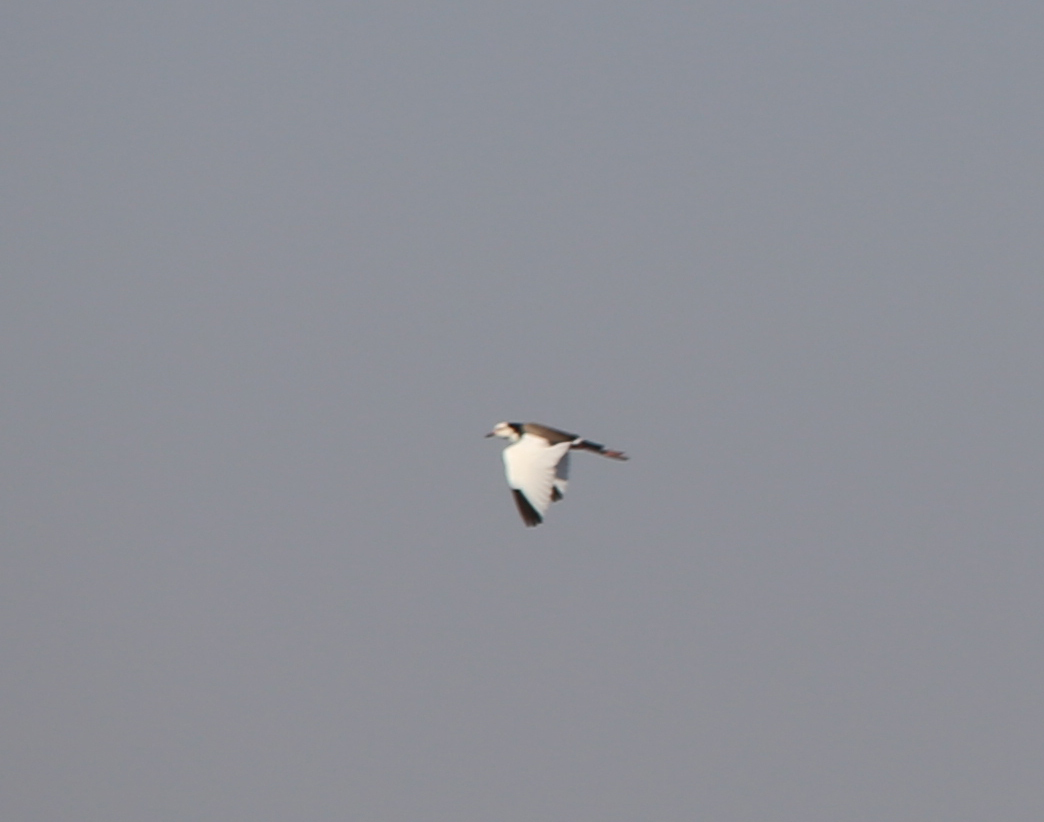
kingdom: Animalia
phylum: Chordata
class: Aves
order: Charadriiformes
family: Charadriidae
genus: Vanellus
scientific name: Vanellus crassirostris
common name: Long-toed lapwing
